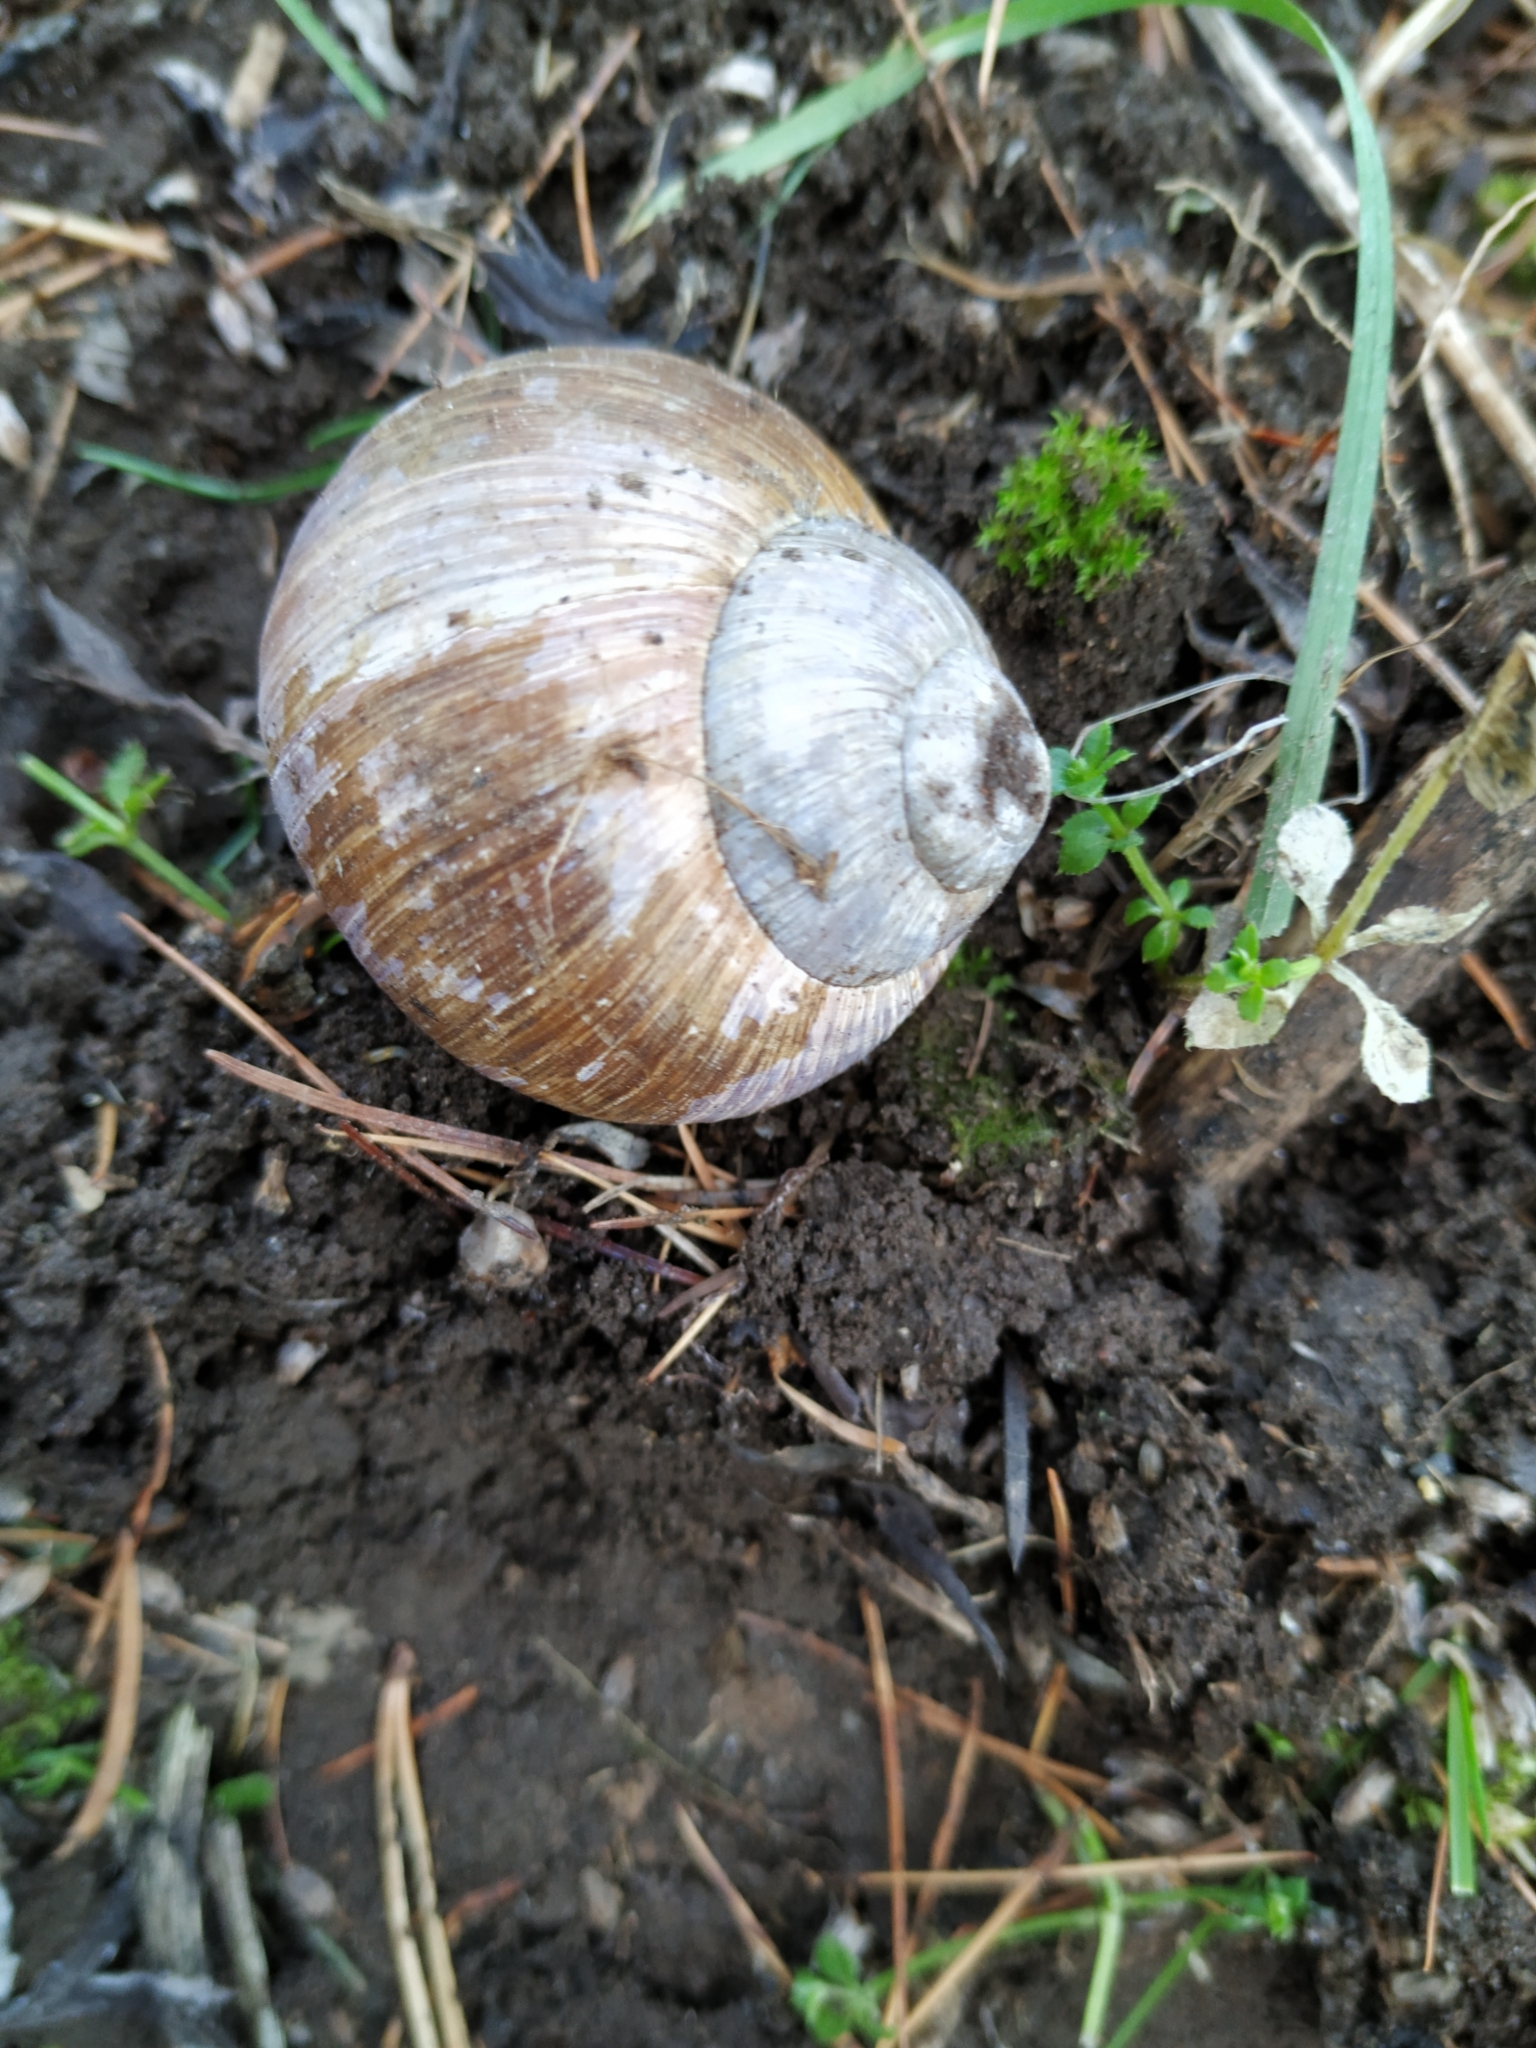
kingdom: Animalia
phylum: Mollusca
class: Gastropoda
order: Stylommatophora
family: Helicidae
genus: Helix
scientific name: Helix pomatia
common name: Roman snail
